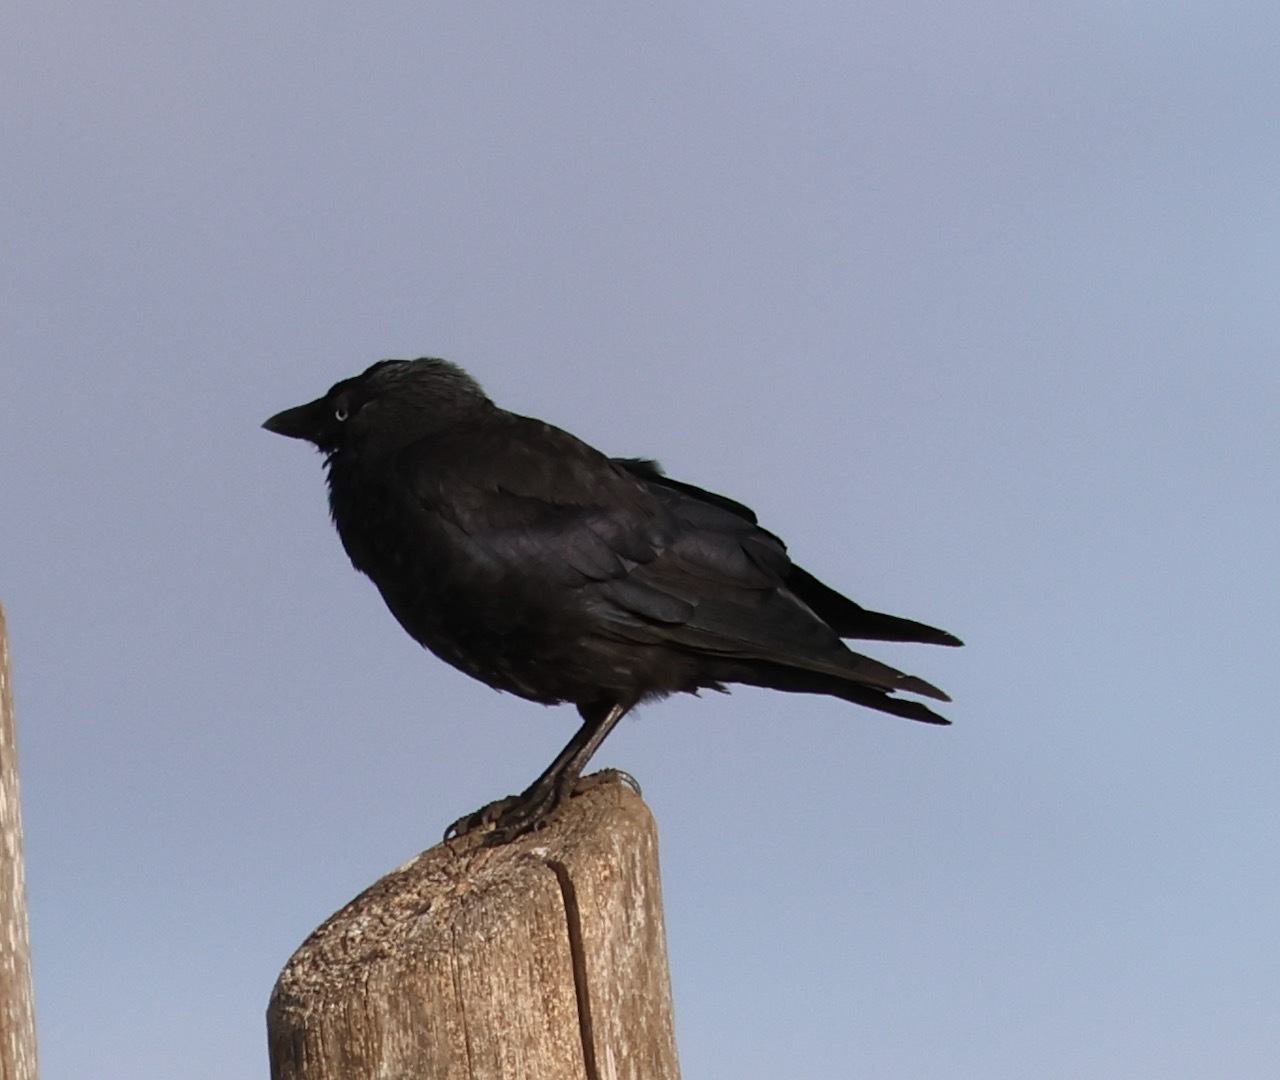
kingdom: Animalia
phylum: Chordata
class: Aves
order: Passeriformes
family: Corvidae
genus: Coloeus
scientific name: Coloeus monedula
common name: Western jackdaw
